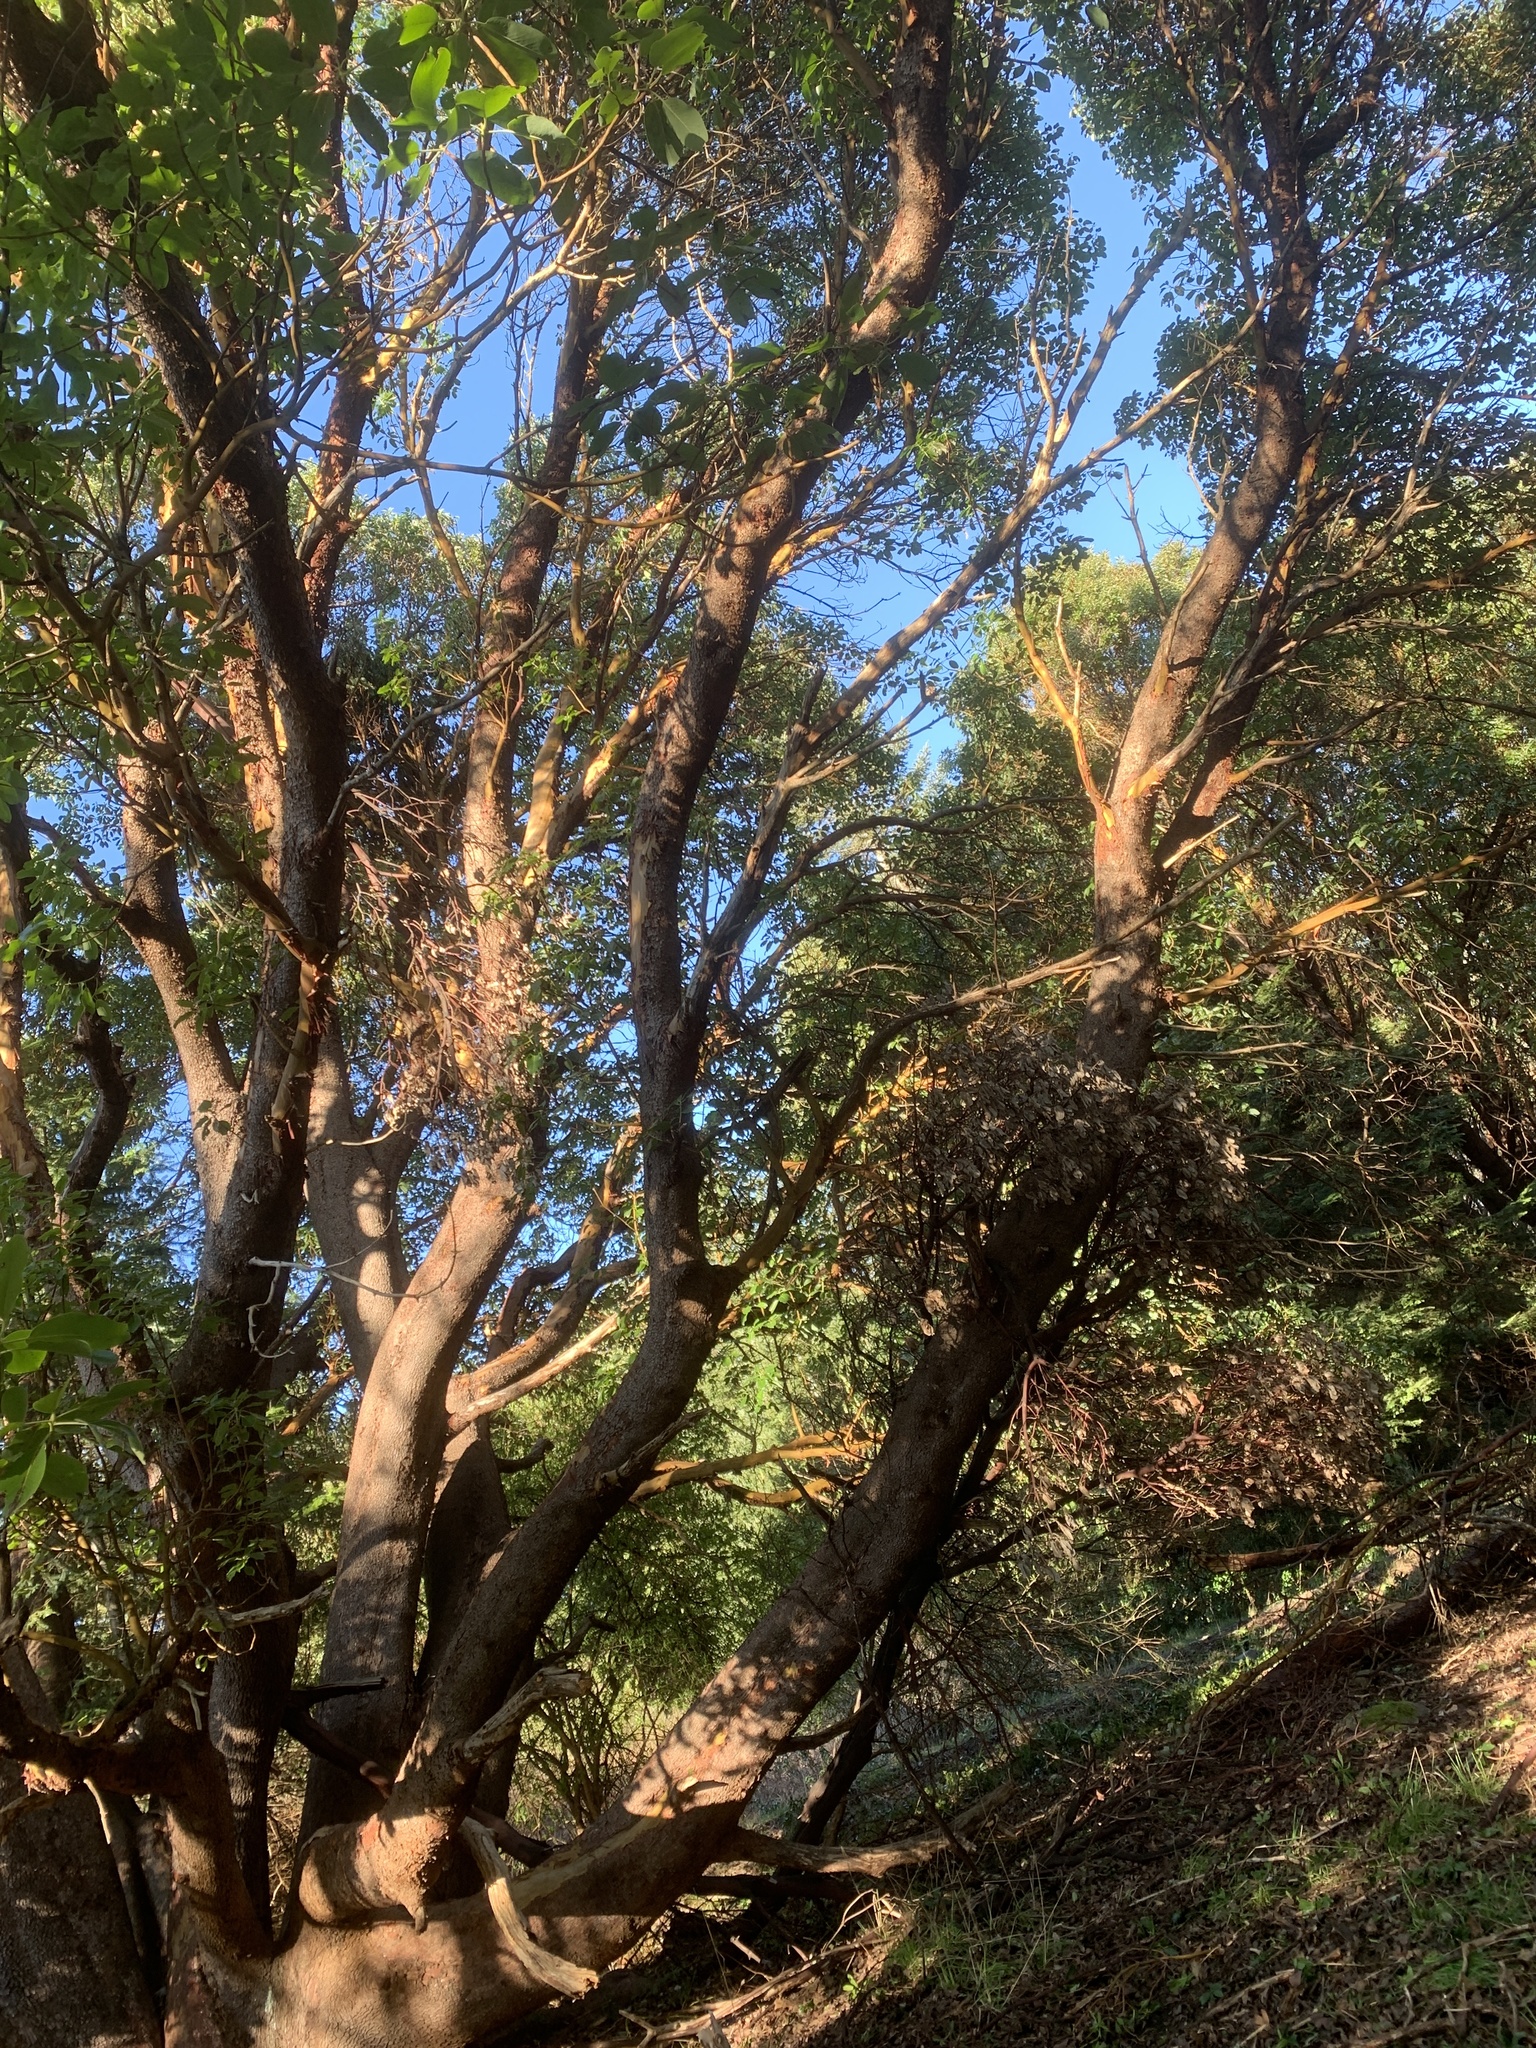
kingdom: Plantae
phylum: Tracheophyta
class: Magnoliopsida
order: Ericales
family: Ericaceae
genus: Arbutus
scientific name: Arbutus menziesii
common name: Pacific madrone
